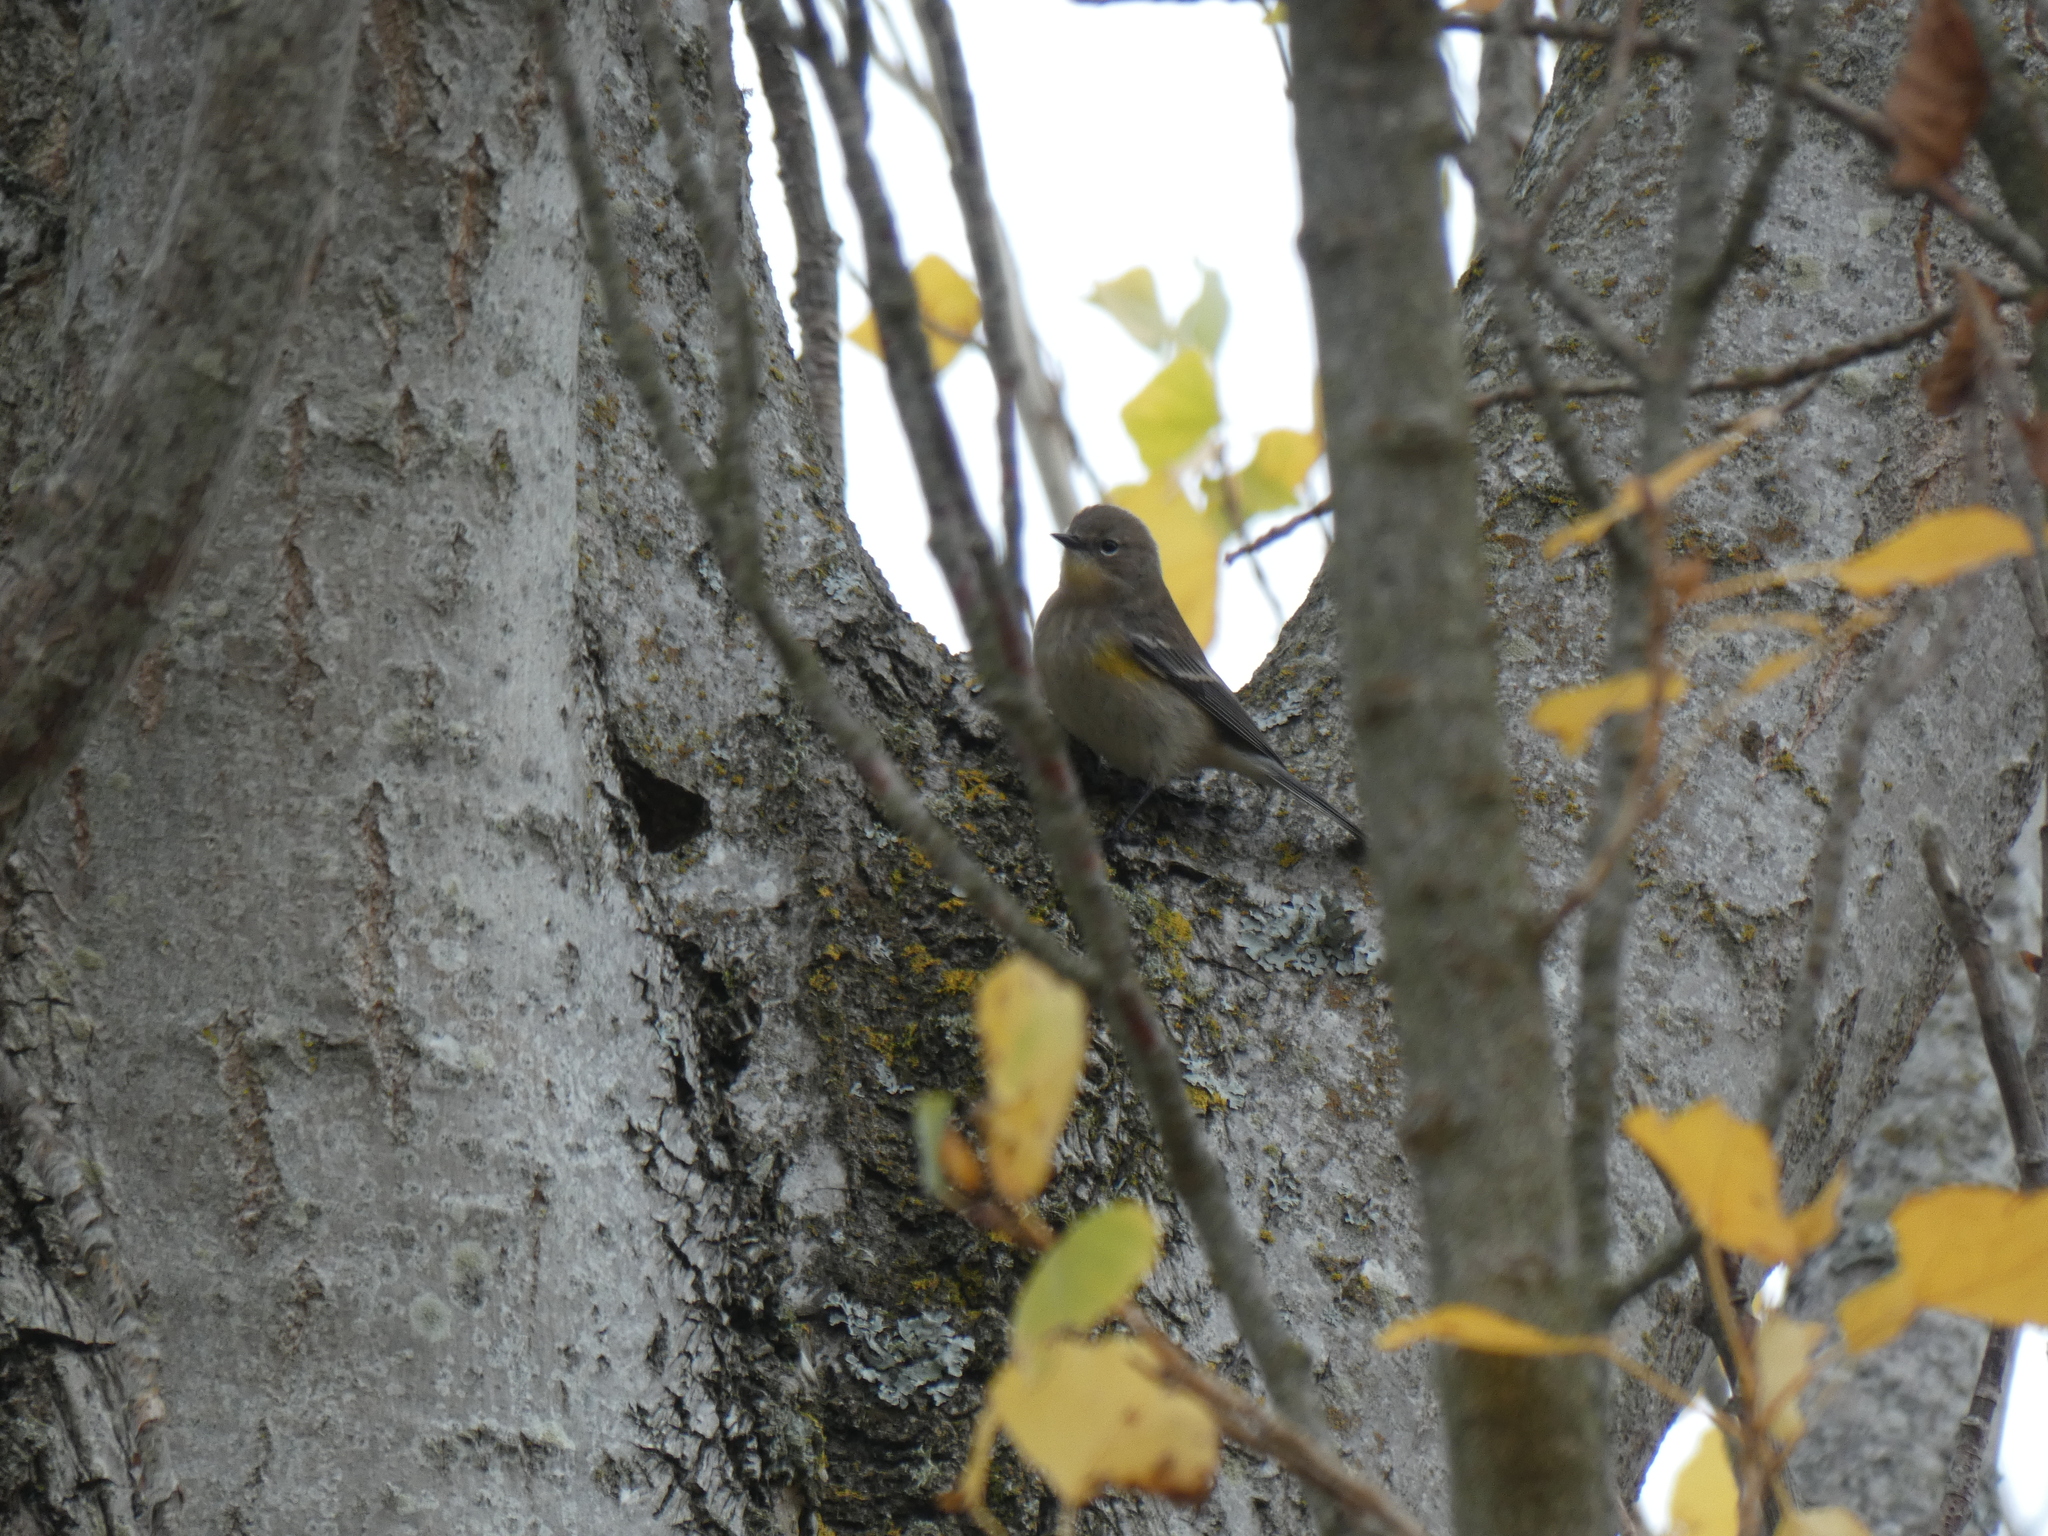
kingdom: Animalia
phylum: Chordata
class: Aves
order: Passeriformes
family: Parulidae
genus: Setophaga
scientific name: Setophaga coronata
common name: Myrtle warbler
